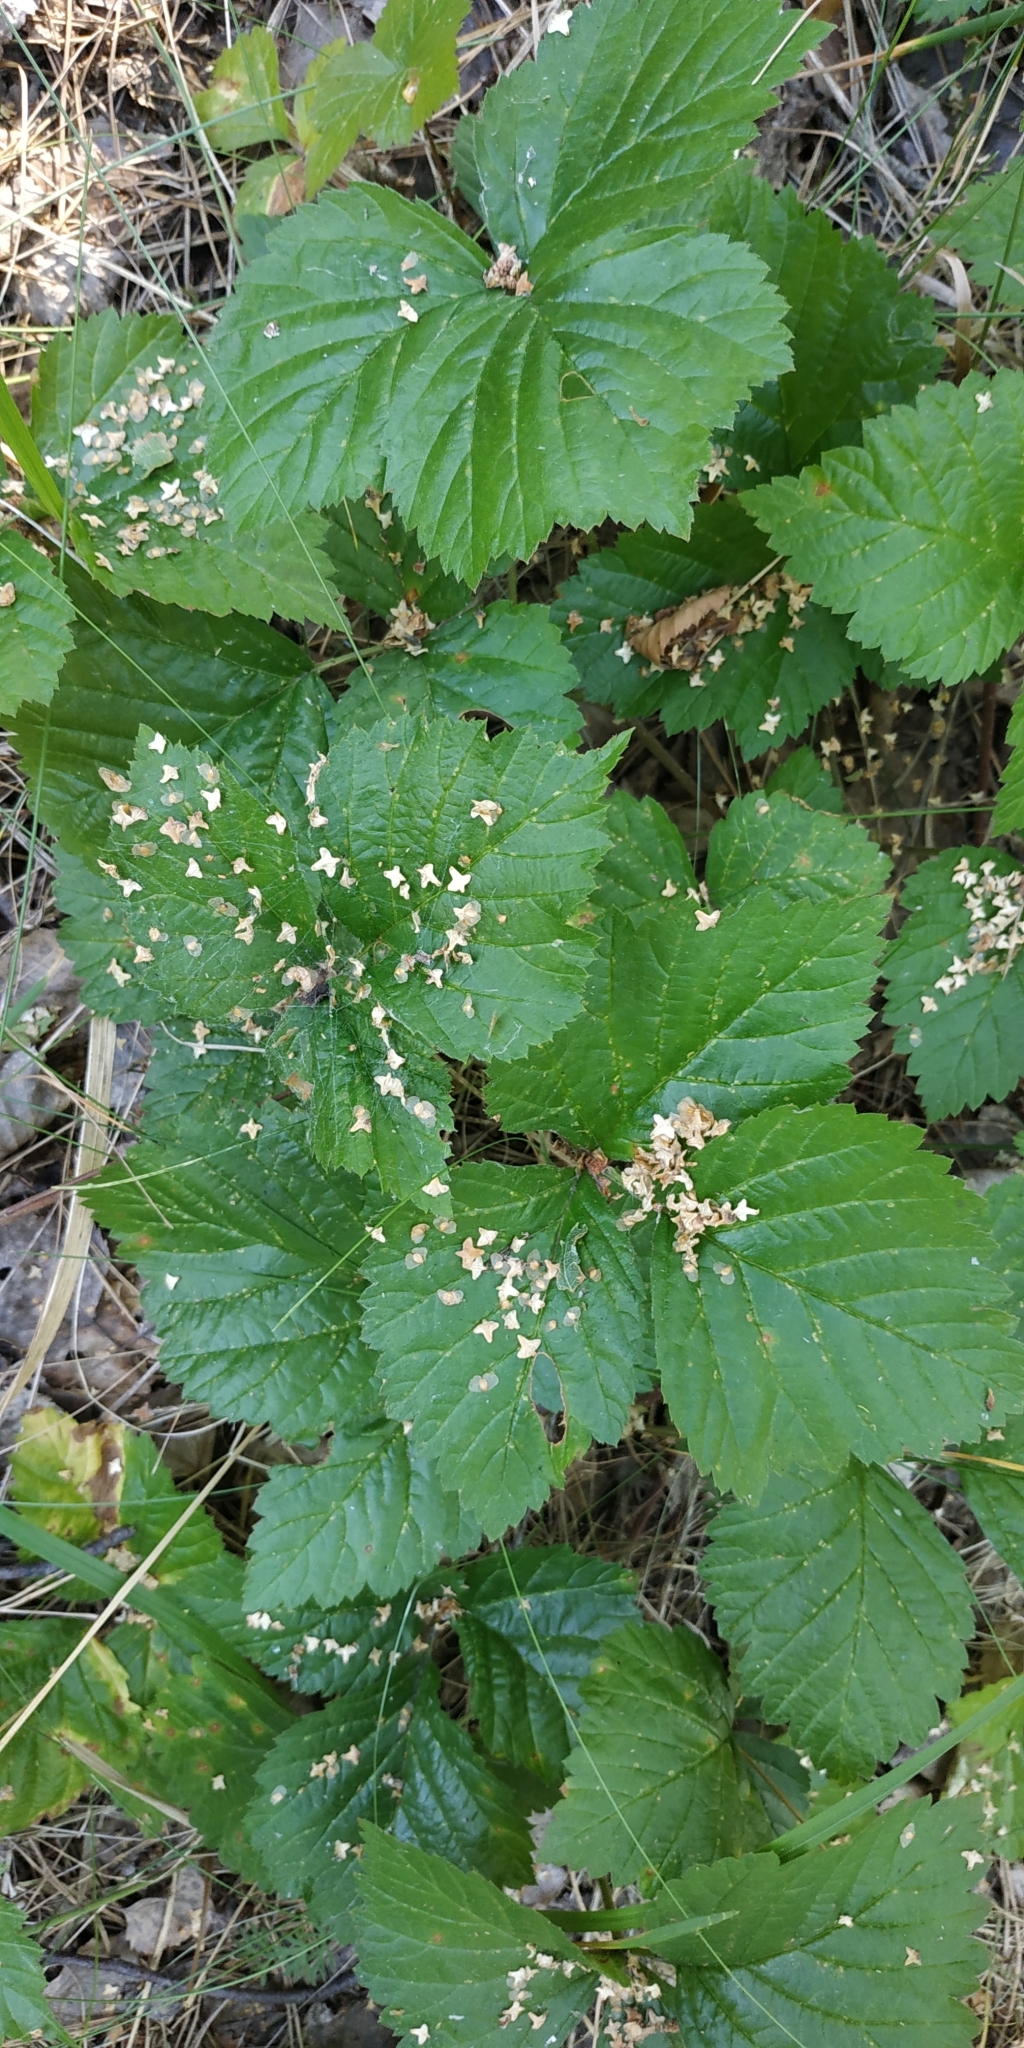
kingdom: Plantae
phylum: Tracheophyta
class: Magnoliopsida
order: Rosales
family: Rosaceae
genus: Rubus
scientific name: Rubus saxatilis
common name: Stone bramble
